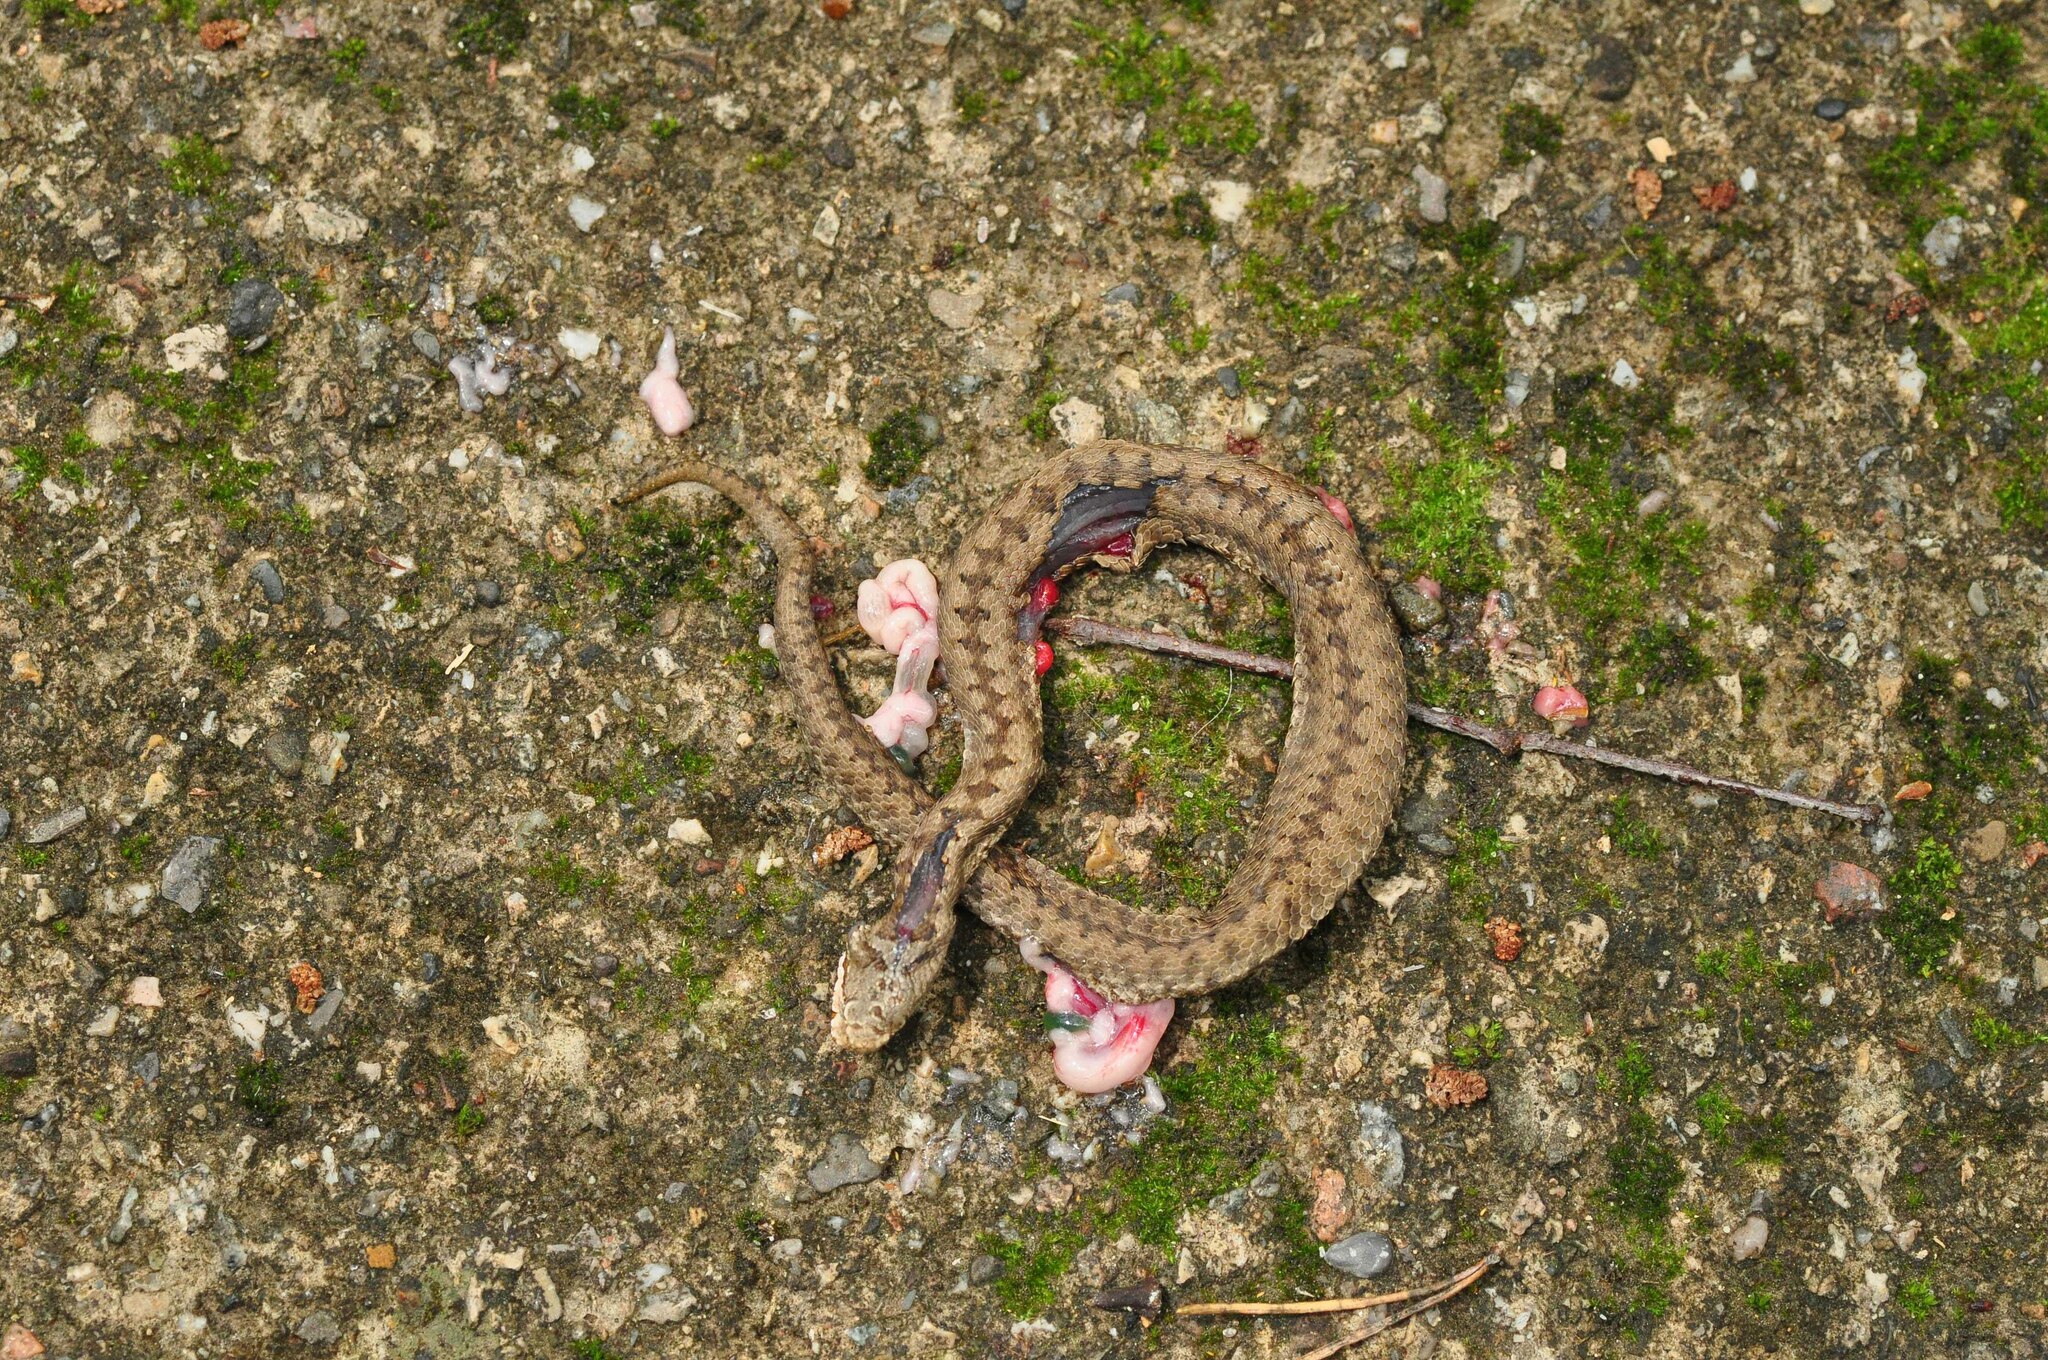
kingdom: Animalia
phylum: Chordata
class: Squamata
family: Viperidae
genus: Vipera
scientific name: Vipera aspis
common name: Asp viper
